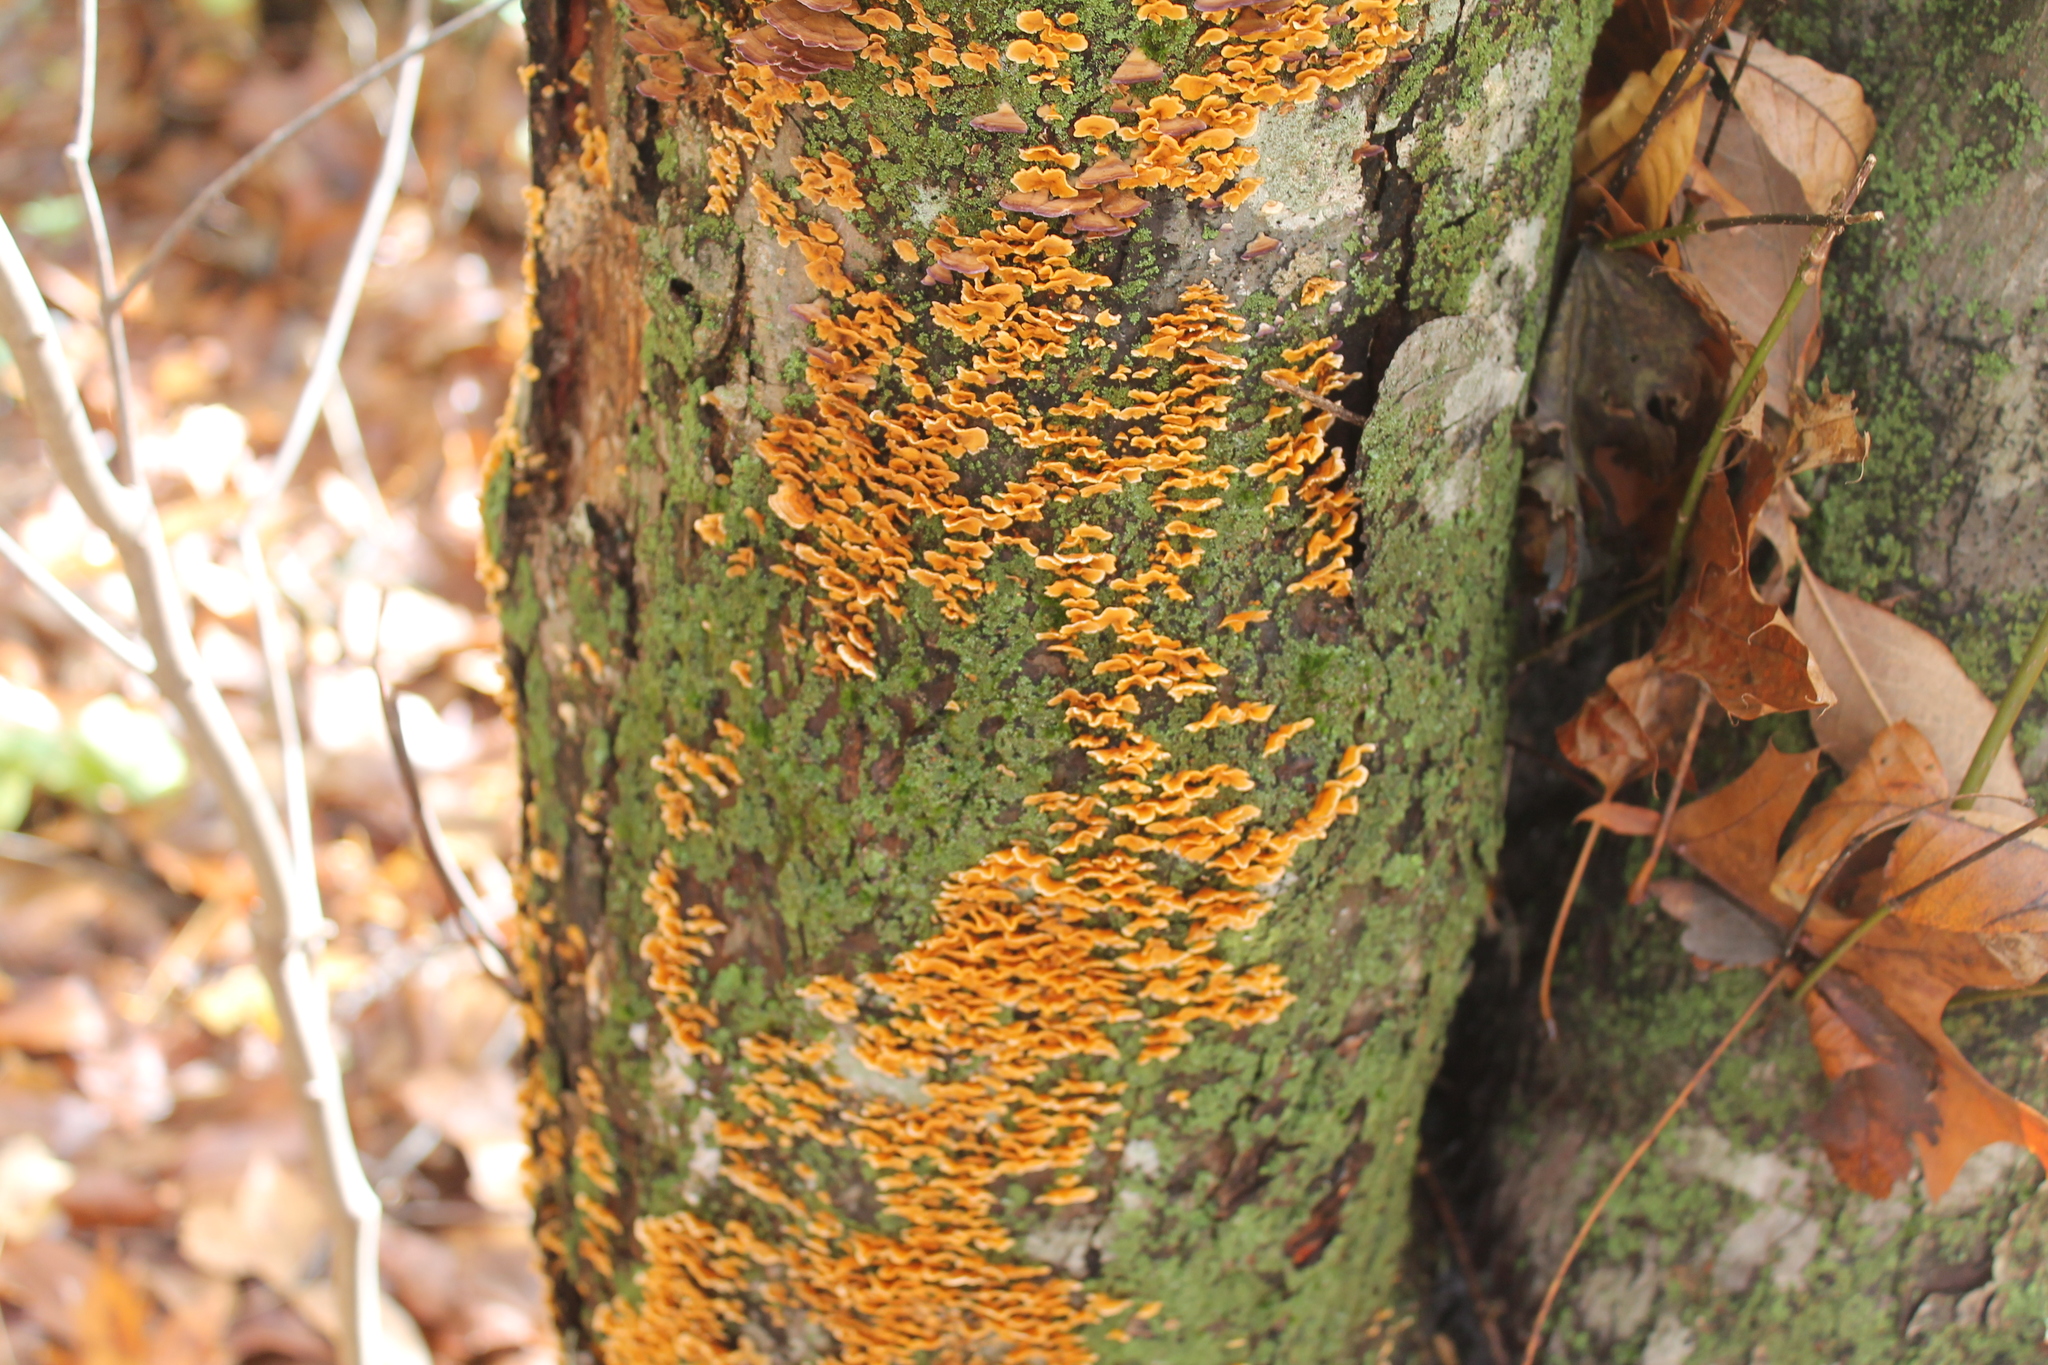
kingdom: Fungi
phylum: Basidiomycota
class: Agaricomycetes
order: Russulales
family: Stereaceae
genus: Stereum
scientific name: Stereum complicatum
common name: Crowded parchment
